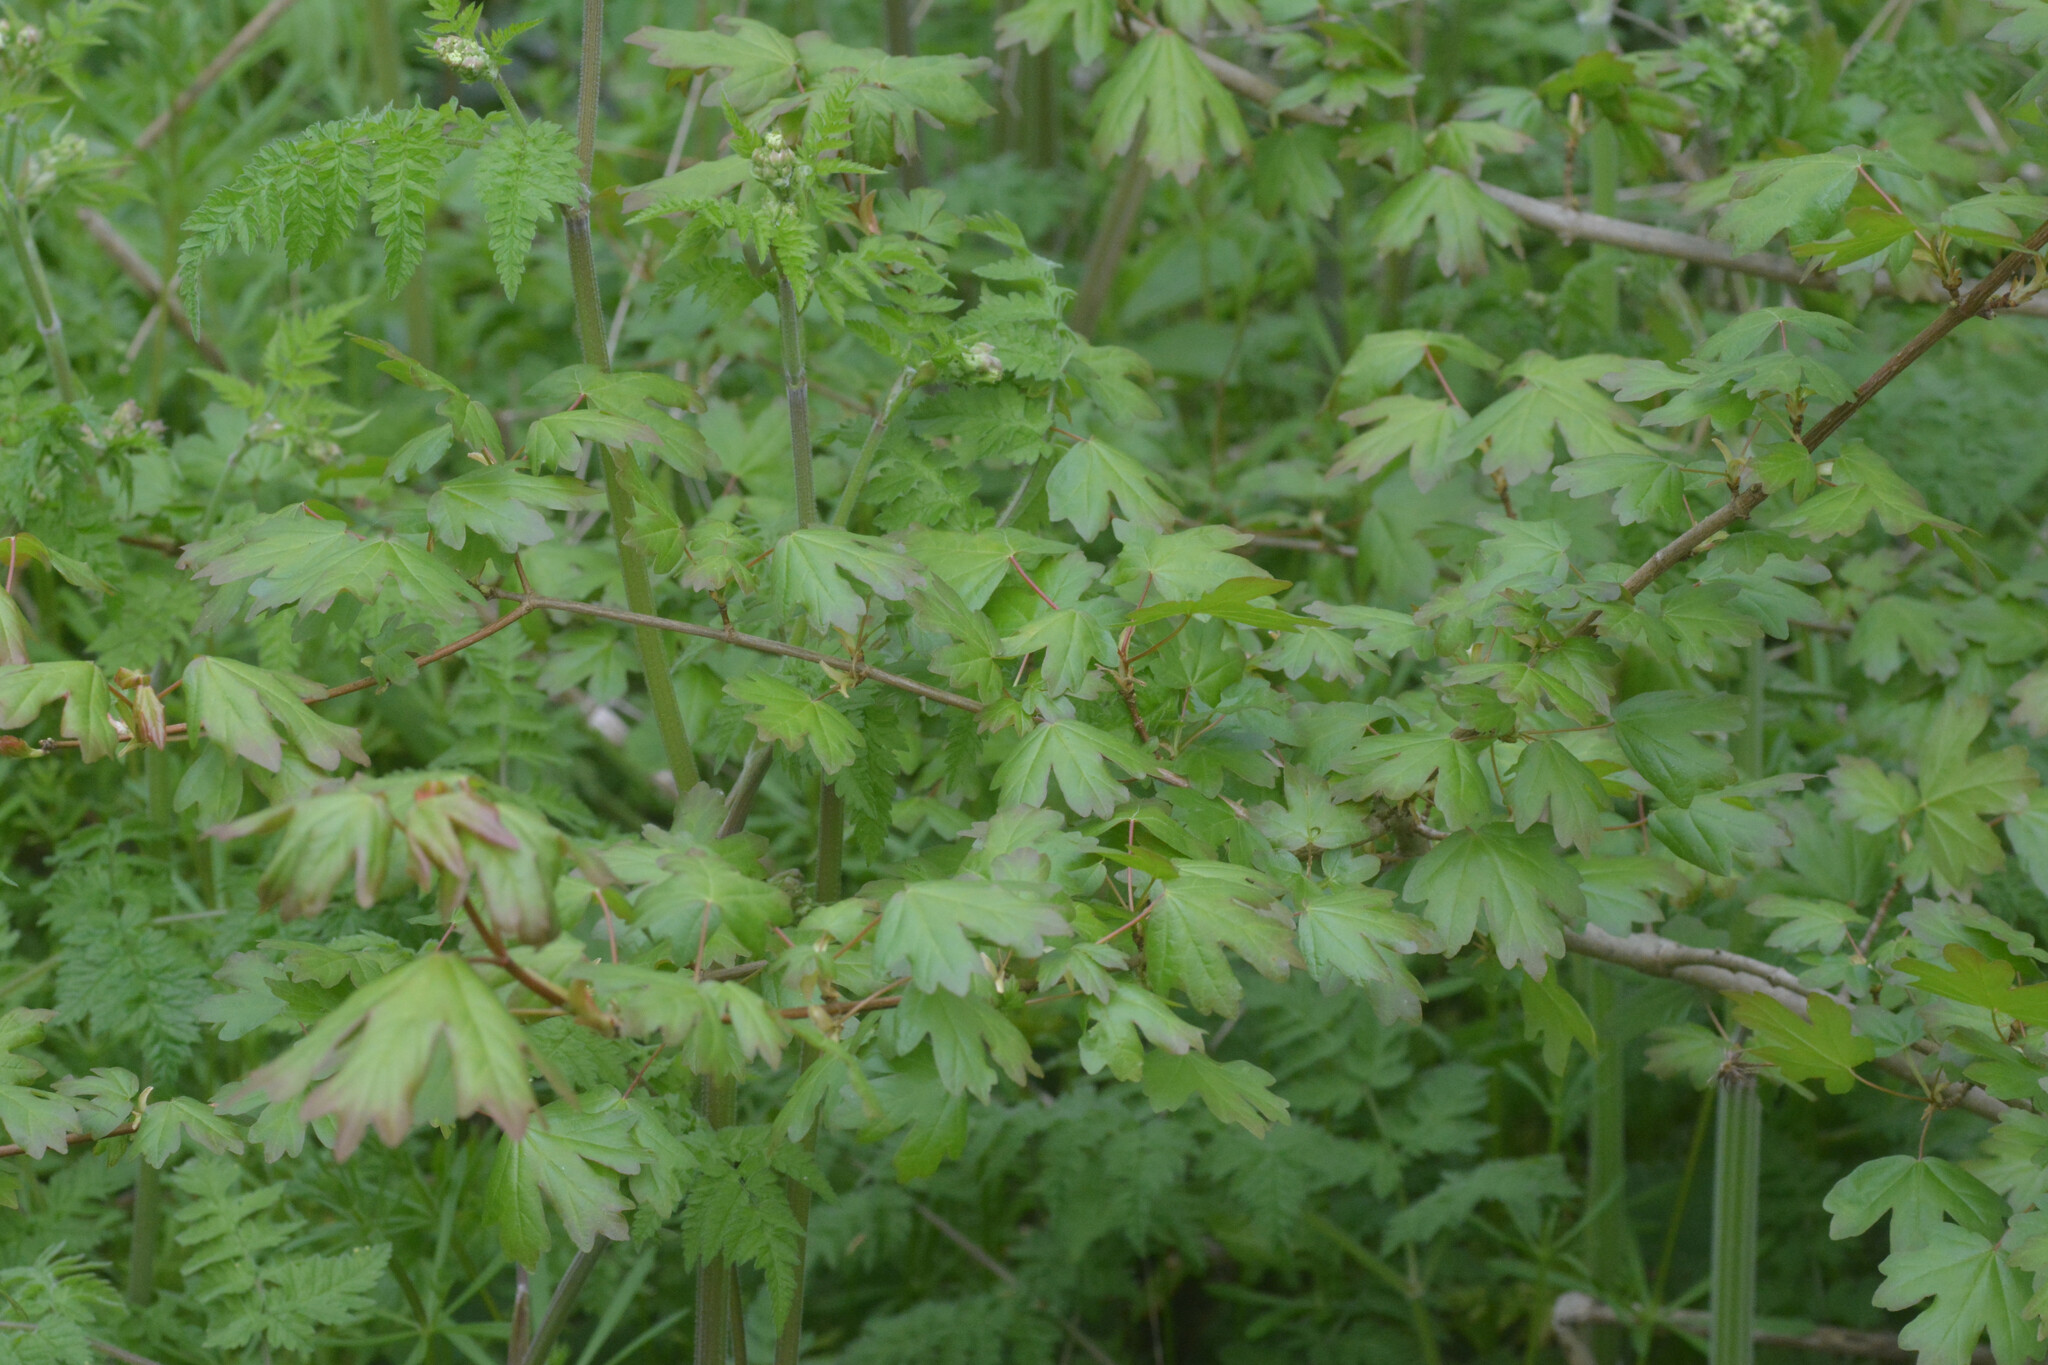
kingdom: Plantae
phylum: Tracheophyta
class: Magnoliopsida
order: Sapindales
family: Sapindaceae
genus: Acer
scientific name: Acer campestre
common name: Field maple
